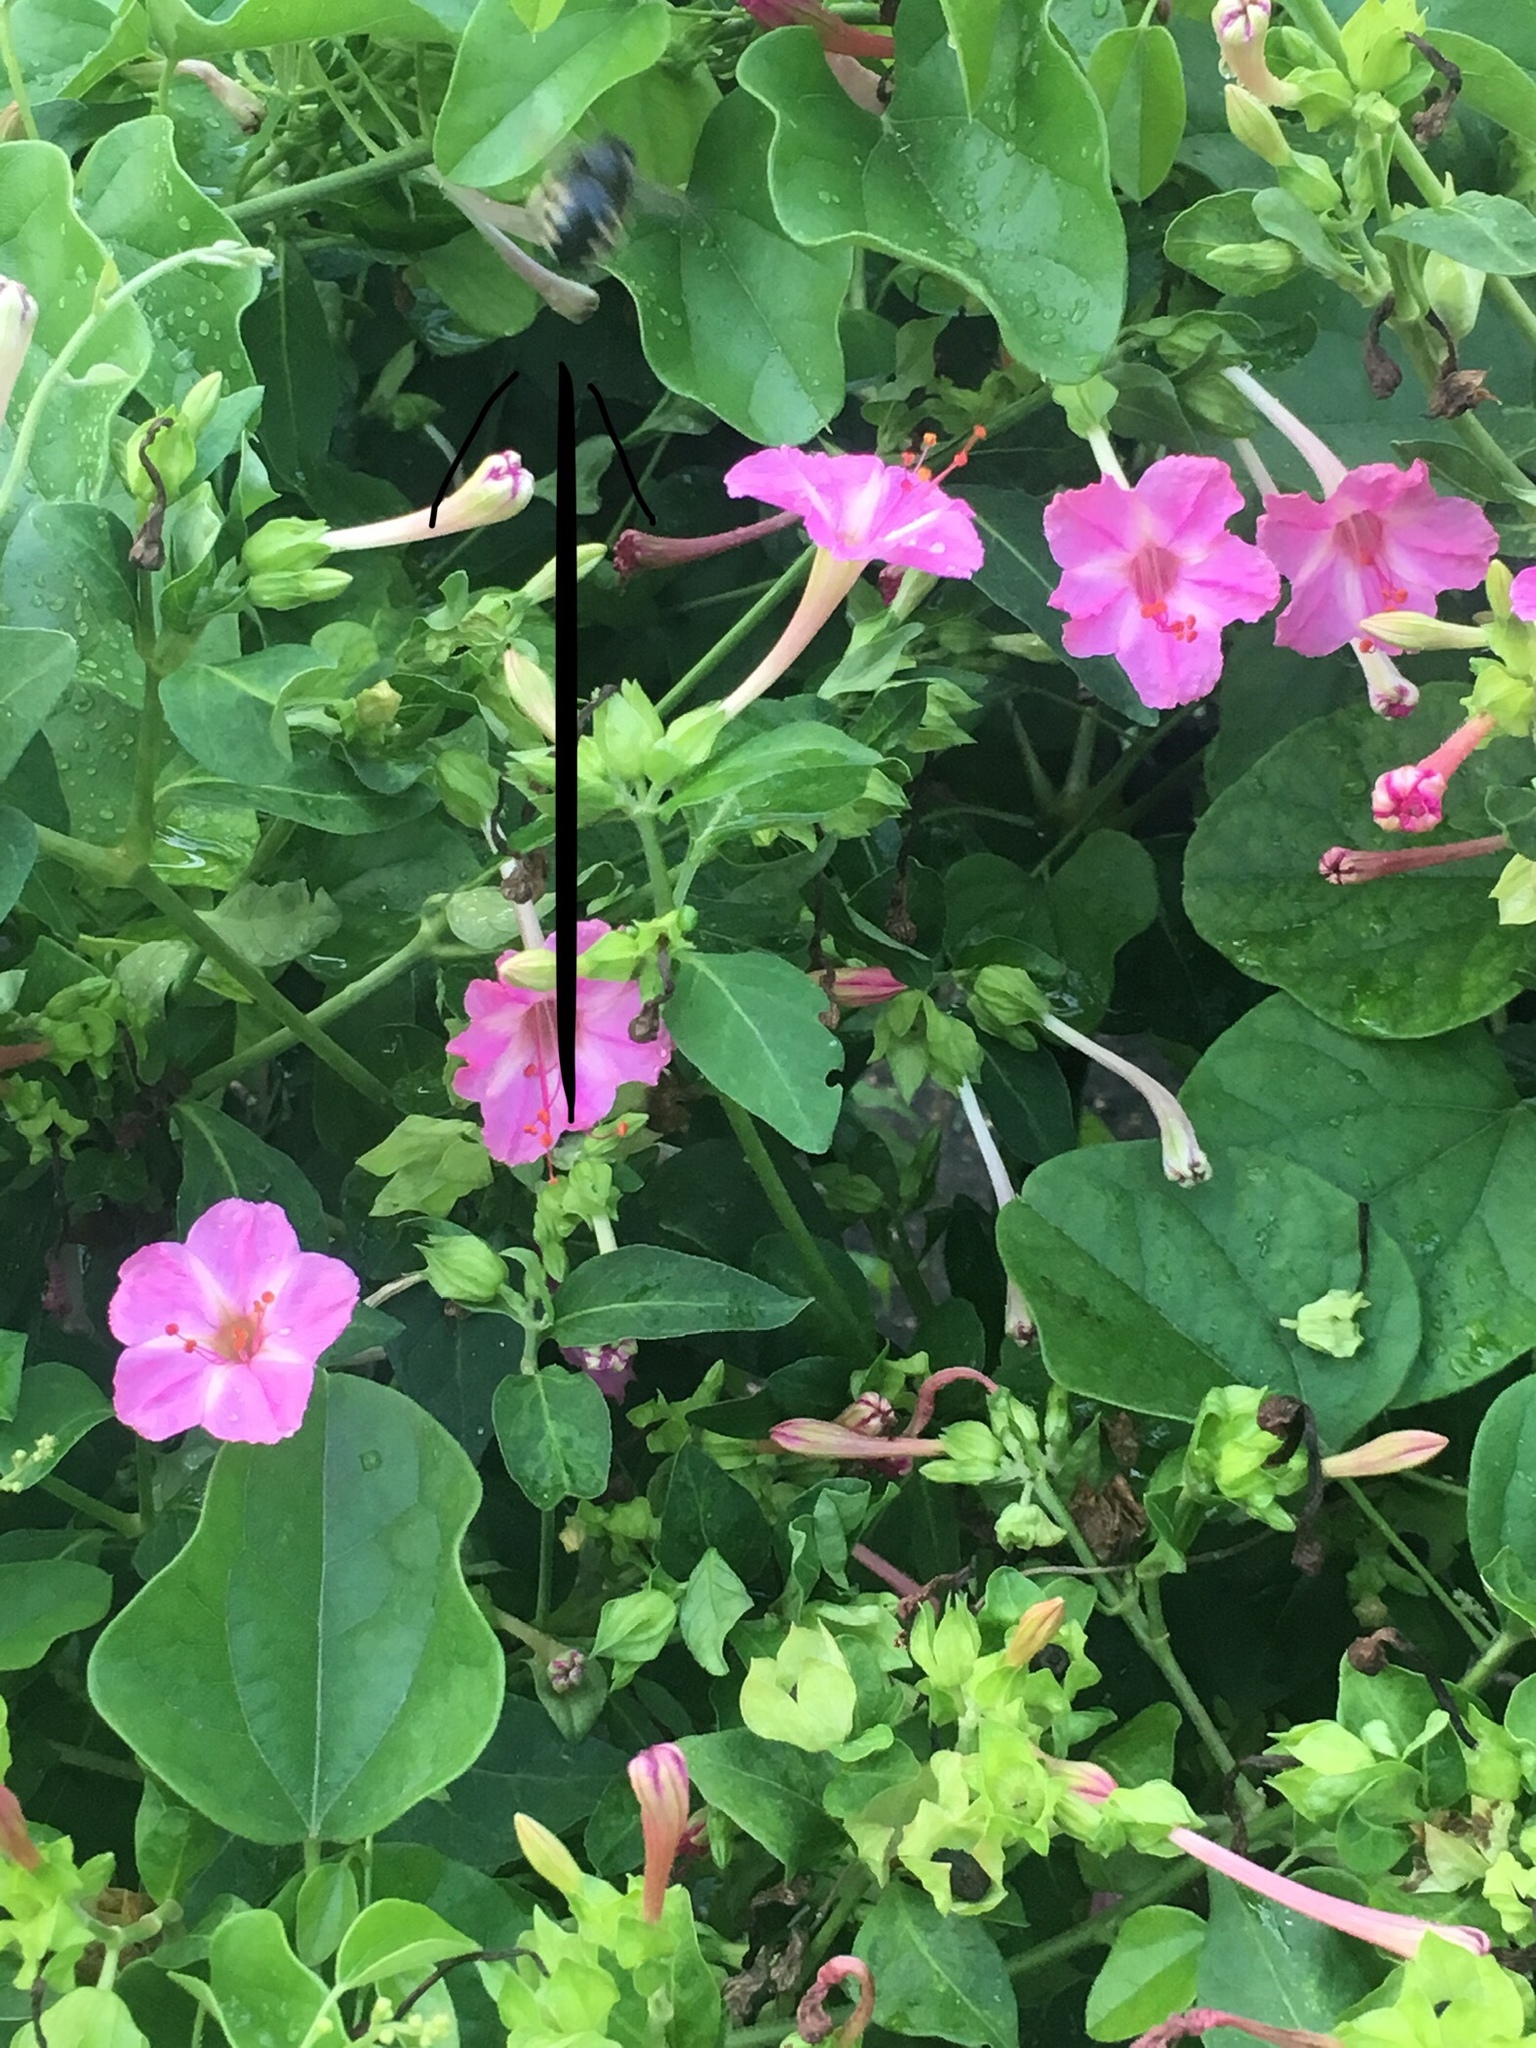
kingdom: Animalia
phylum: Arthropoda
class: Insecta
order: Hymenoptera
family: Apidae
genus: Xylocopa
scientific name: Xylocopa tabaniformis
